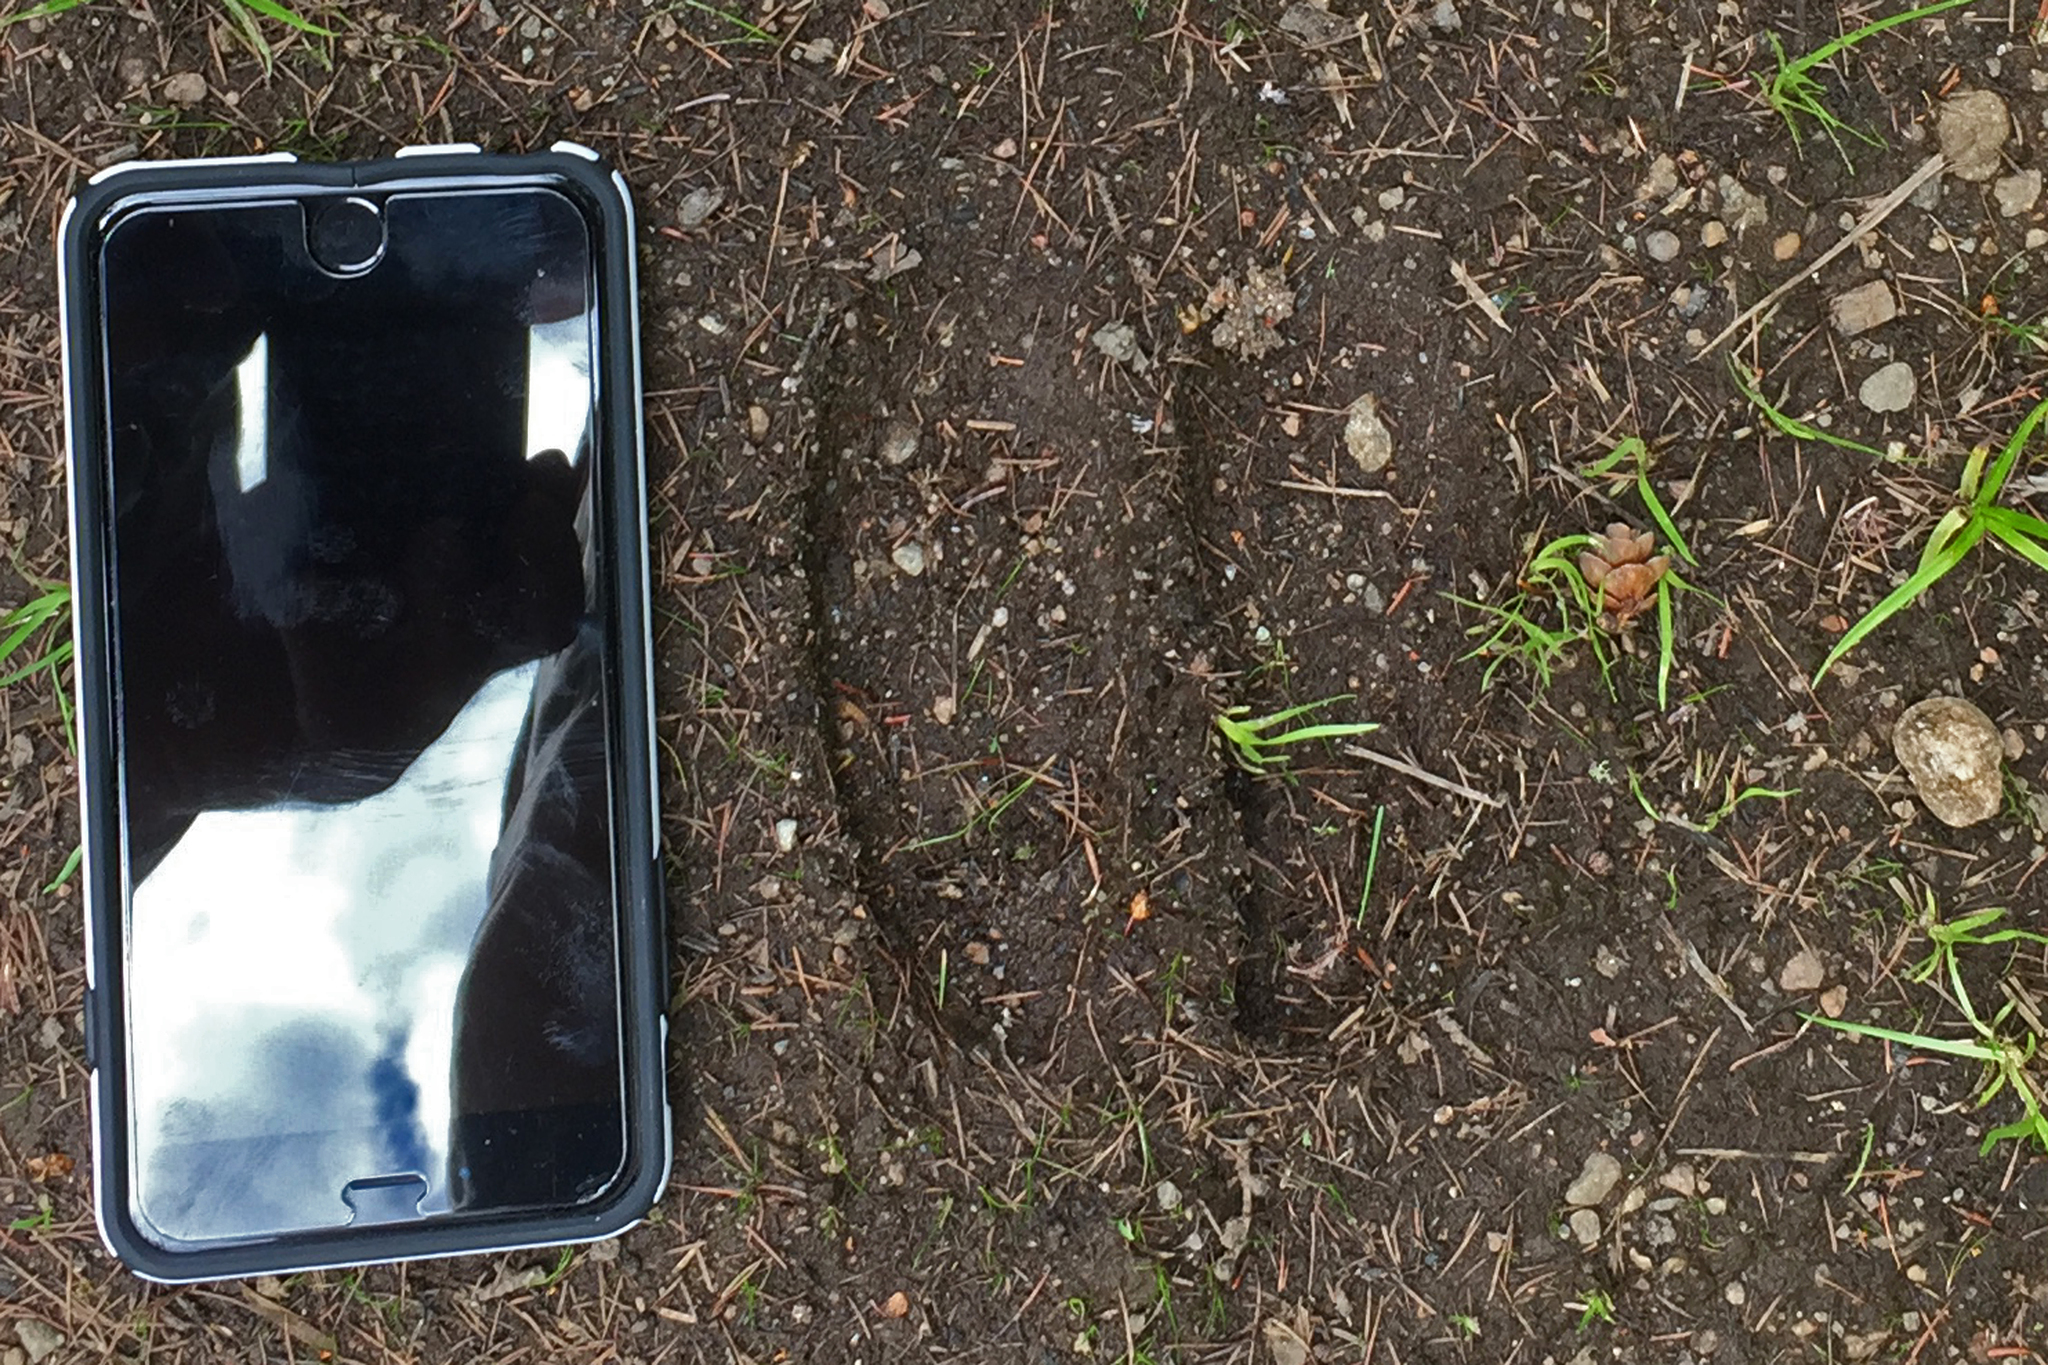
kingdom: Animalia
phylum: Chordata
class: Mammalia
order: Artiodactyla
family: Cervidae
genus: Alces
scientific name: Alces alces
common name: Moose
